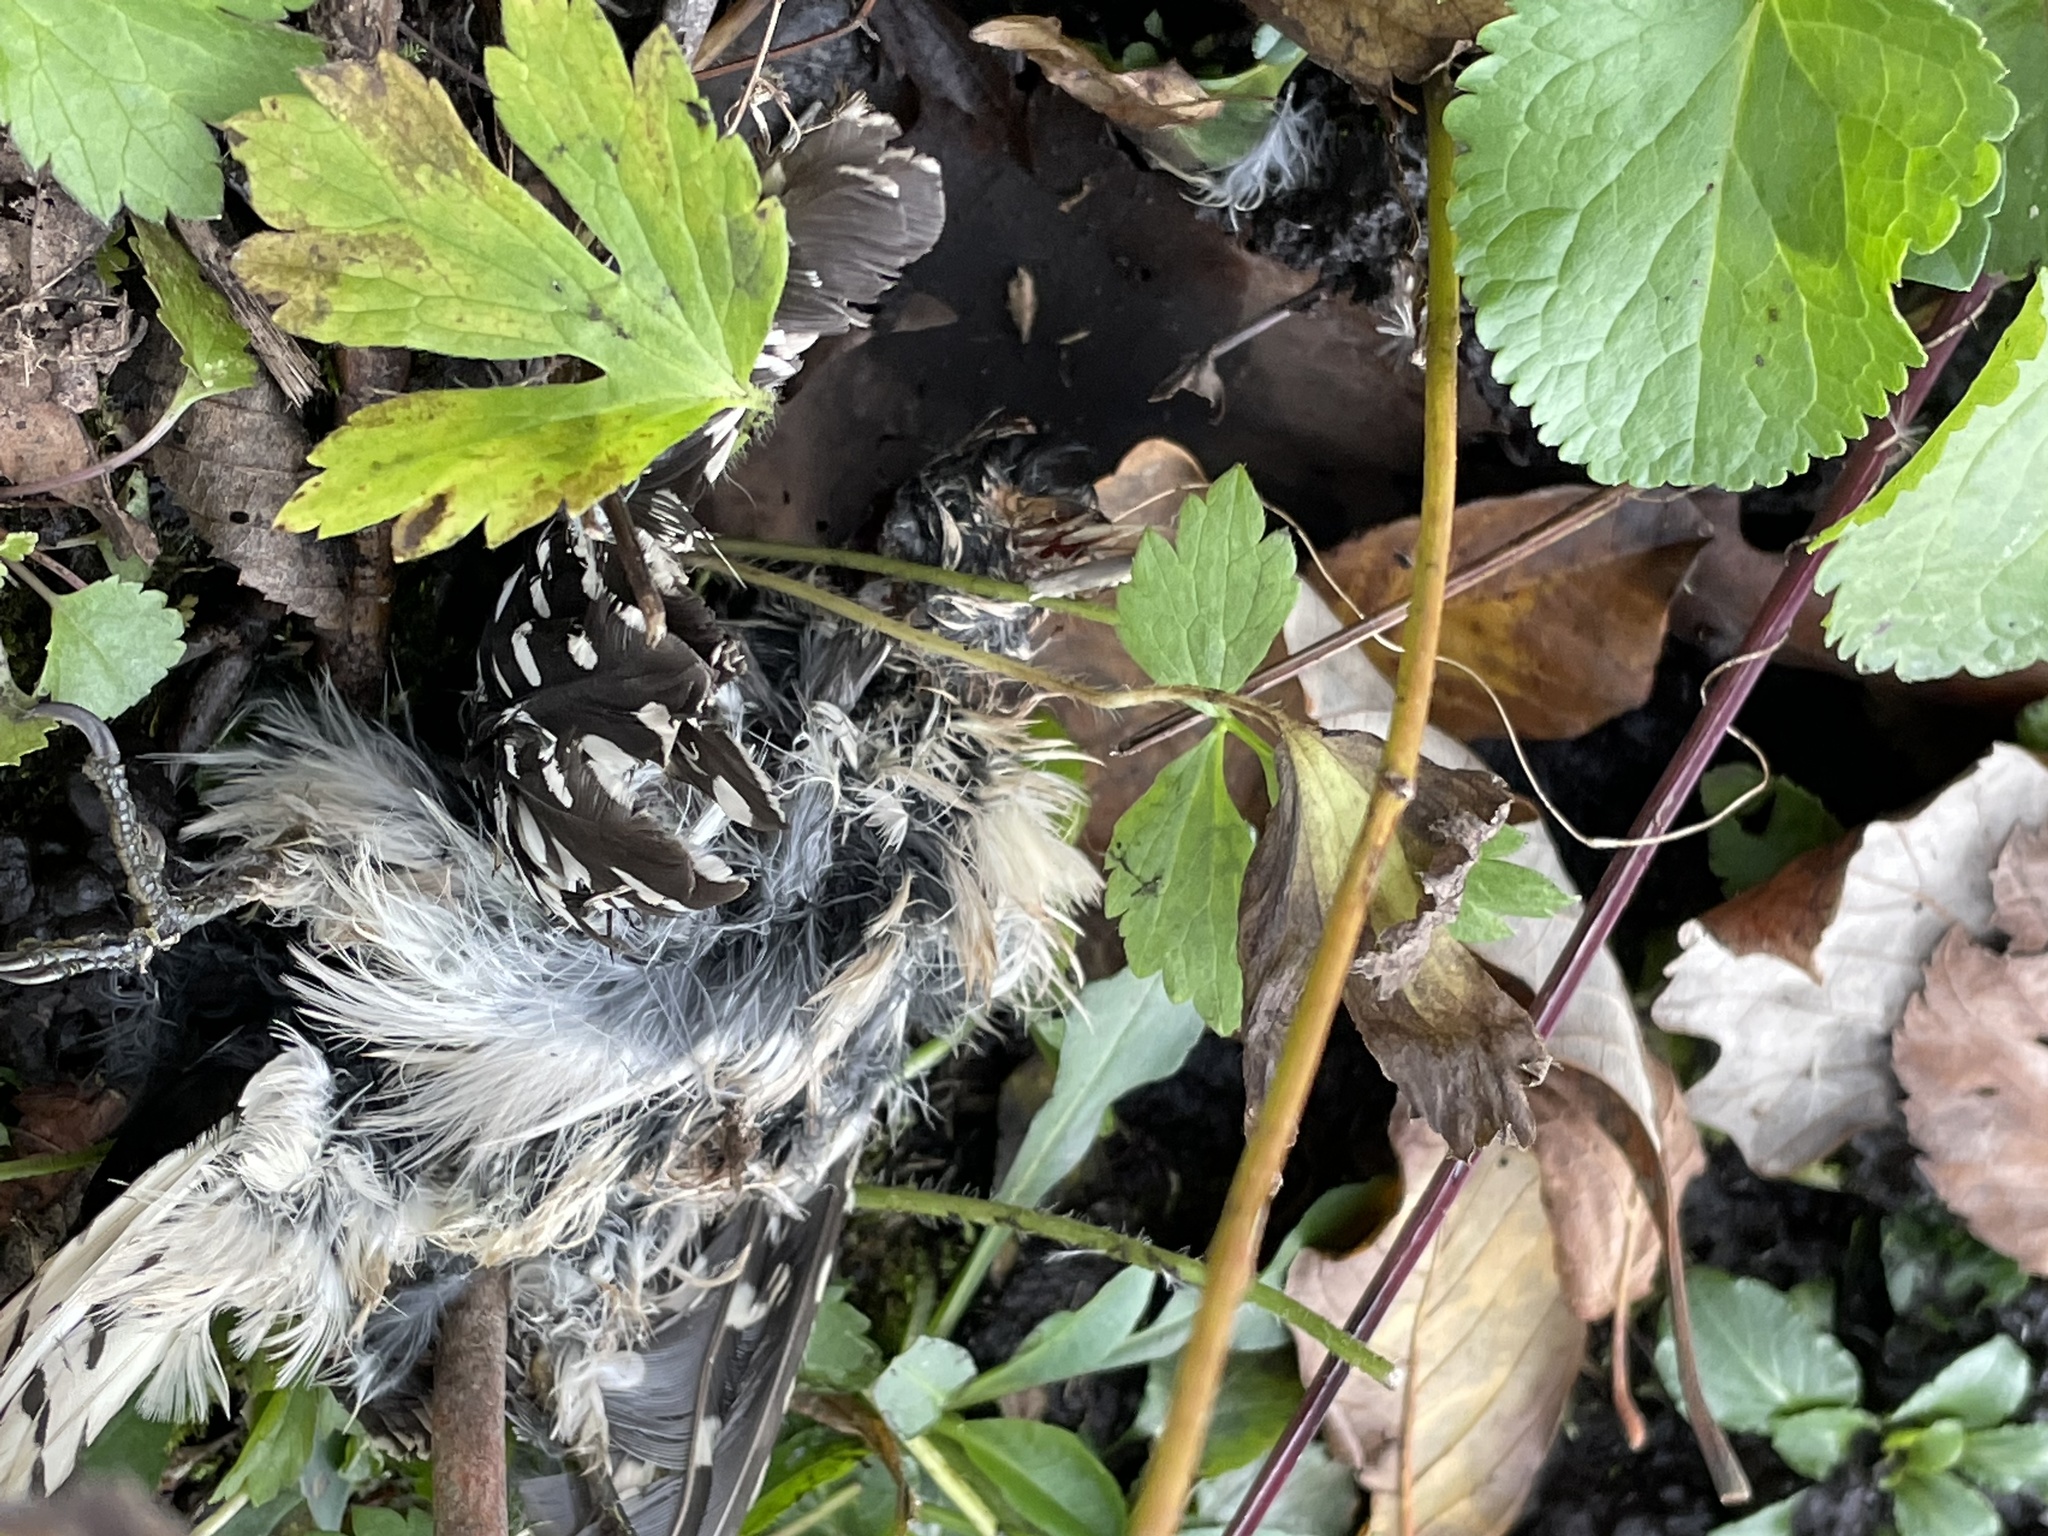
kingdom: Animalia
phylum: Chordata
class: Aves
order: Piciformes
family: Picidae
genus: Dryobates
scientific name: Dryobates pubescens
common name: Downy woodpecker
